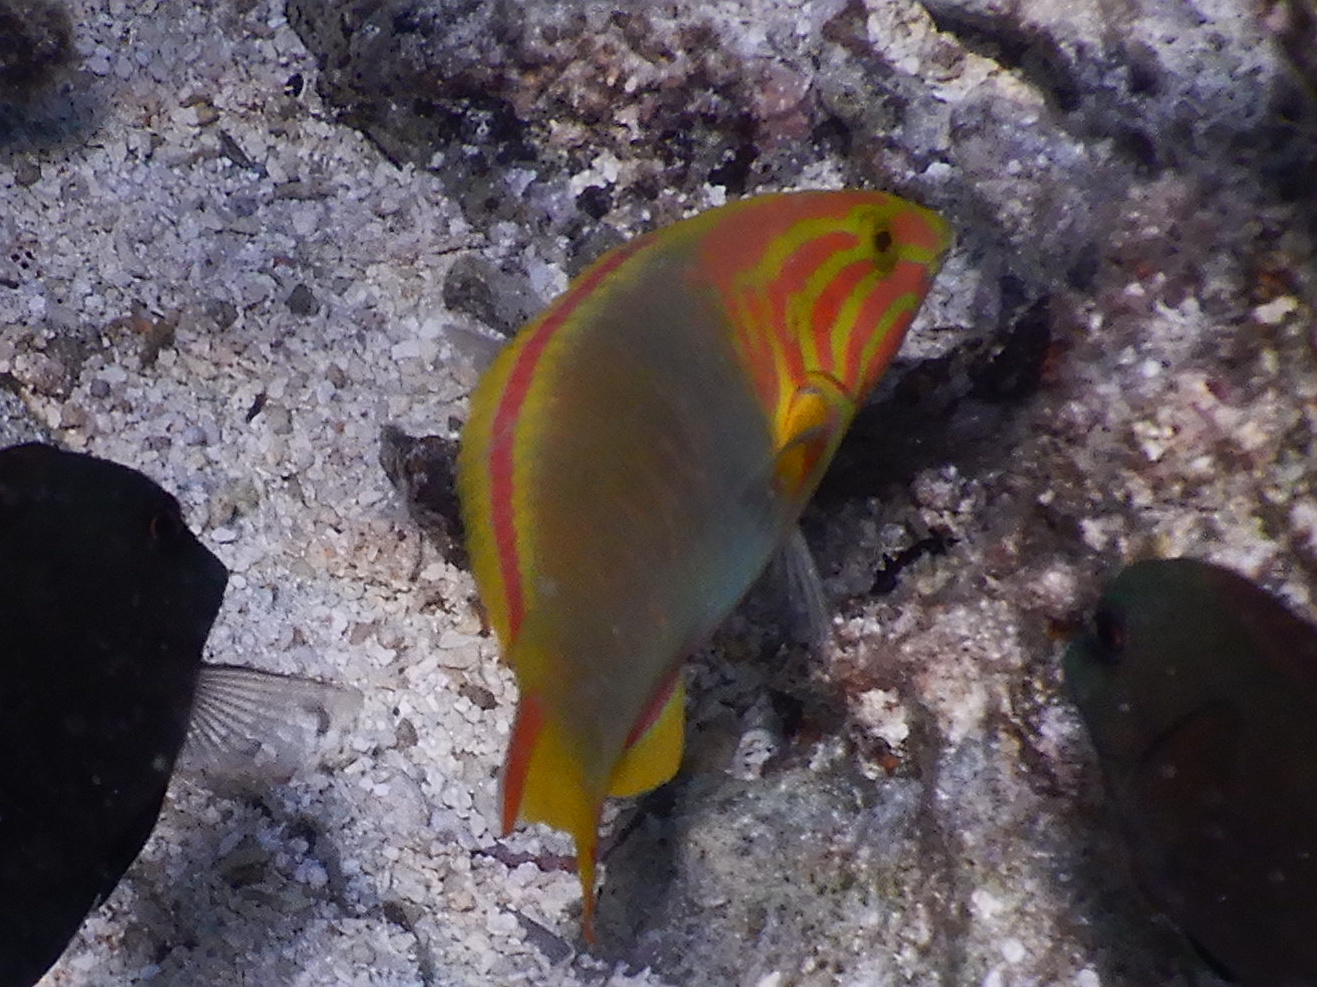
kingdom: Animalia
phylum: Chordata
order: Perciformes
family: Labridae
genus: Thalassoma
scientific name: Thalassoma lutescens
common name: Green moon wrasse
